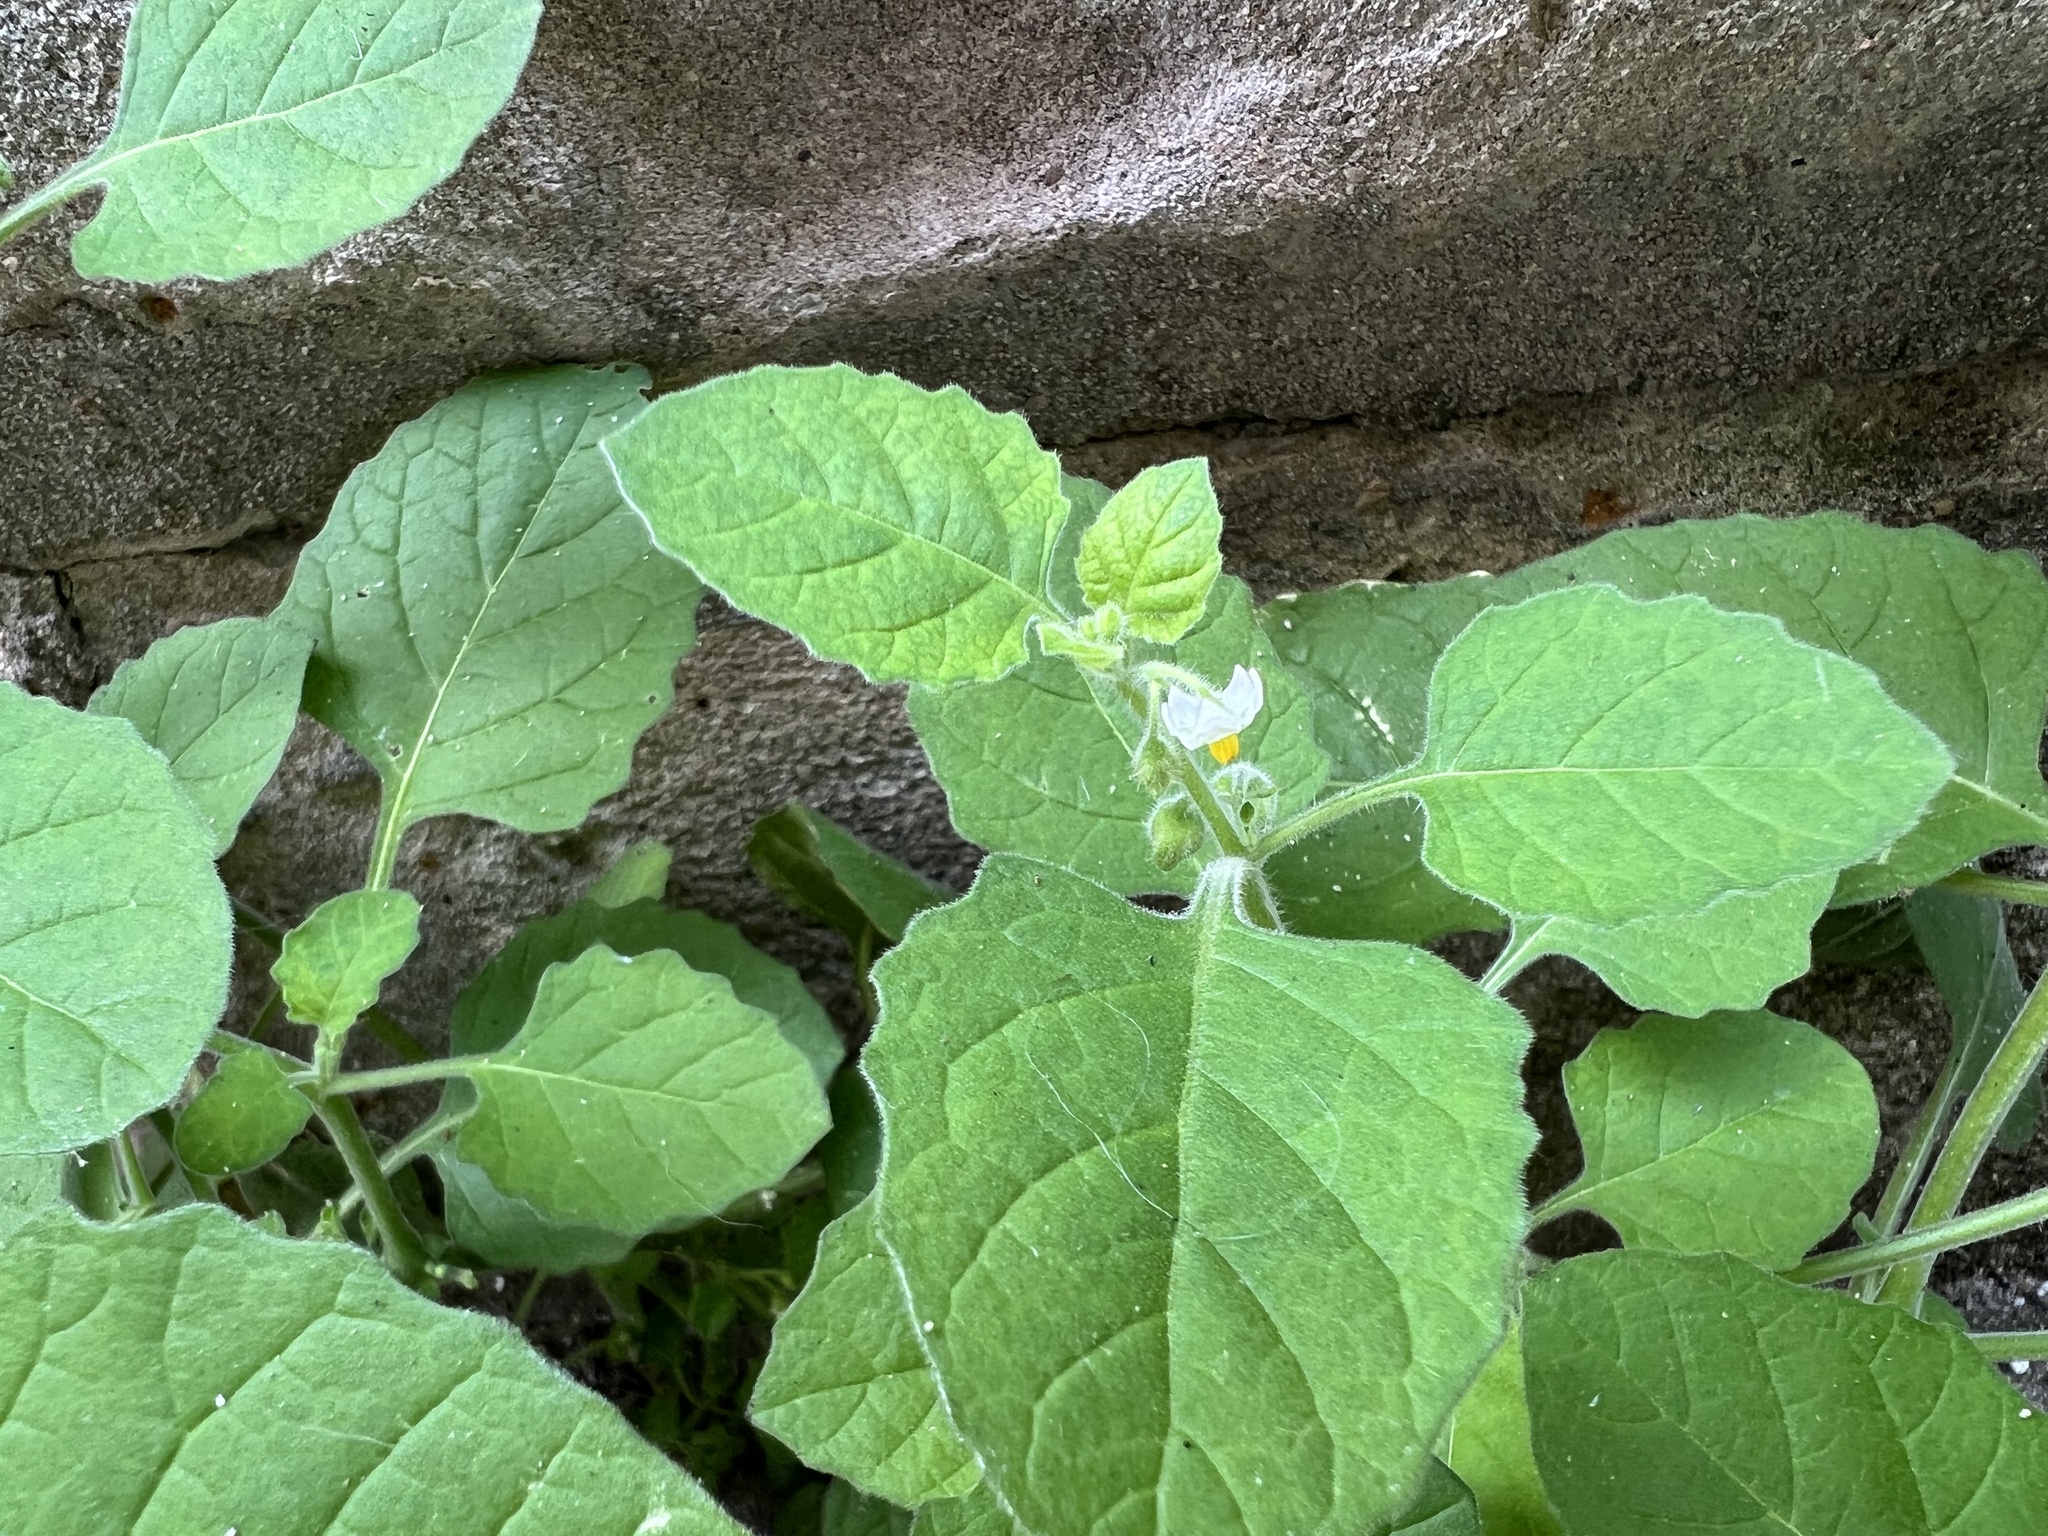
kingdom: Plantae
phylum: Tracheophyta
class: Magnoliopsida
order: Solanales
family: Solanaceae
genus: Solanum
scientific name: Solanum sarrachoides
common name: Leafy-fruited nightshade
